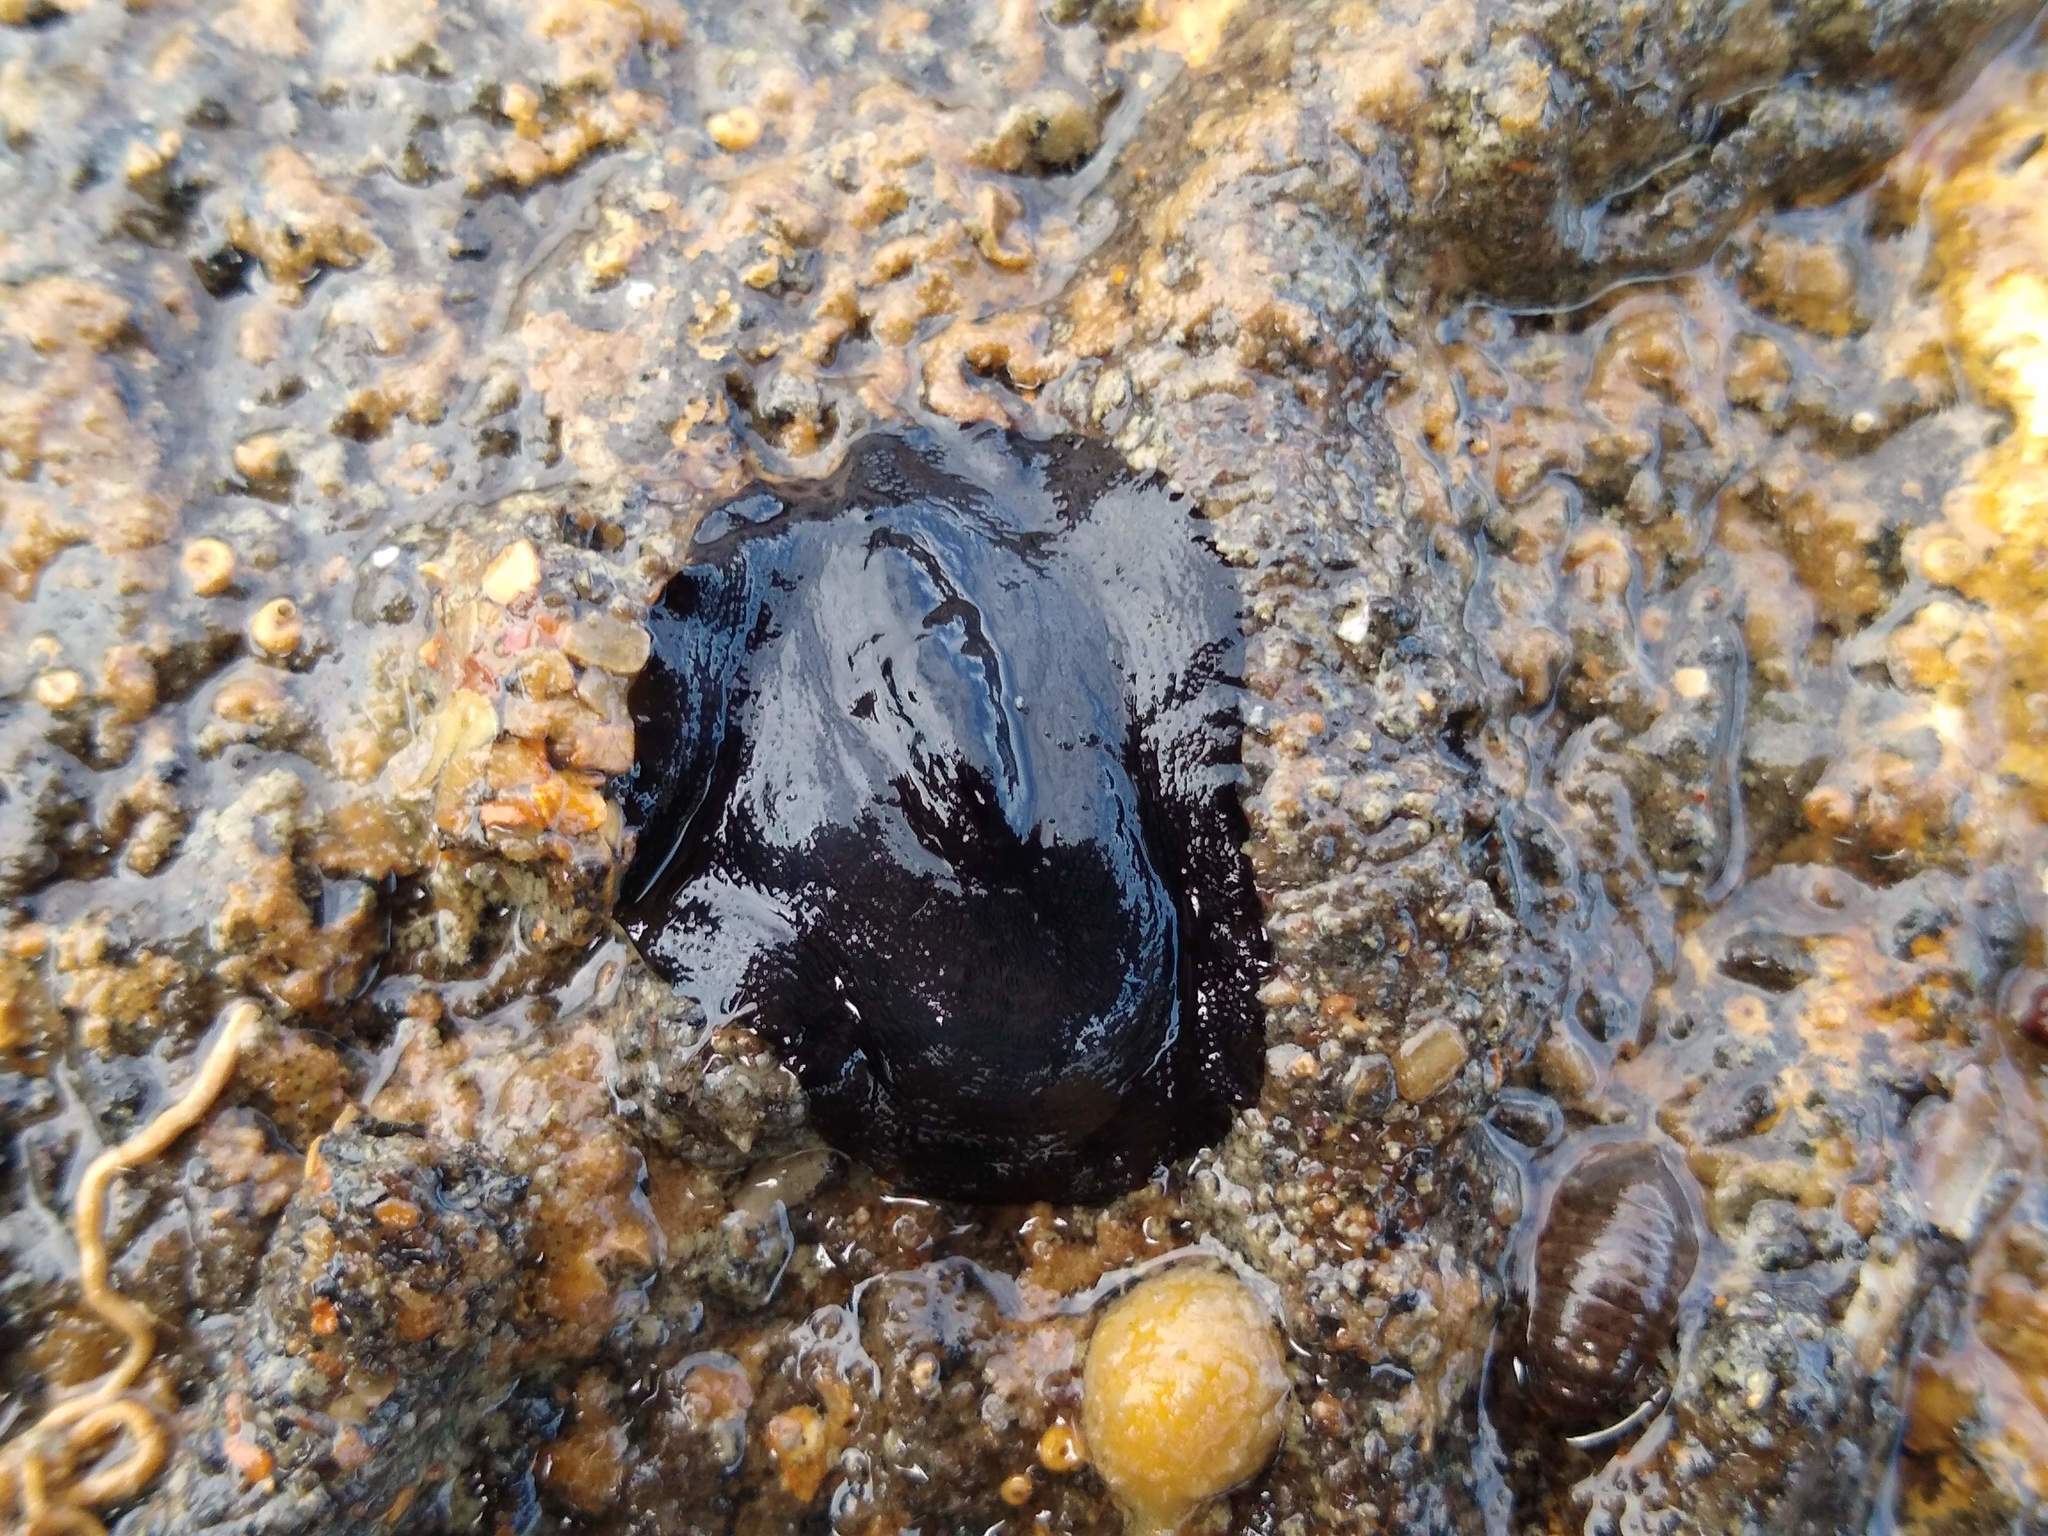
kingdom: Animalia
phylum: Mollusca
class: Gastropoda
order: Lepetellida
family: Fissurellidae
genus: Scutus
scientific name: Scutus breviculus
